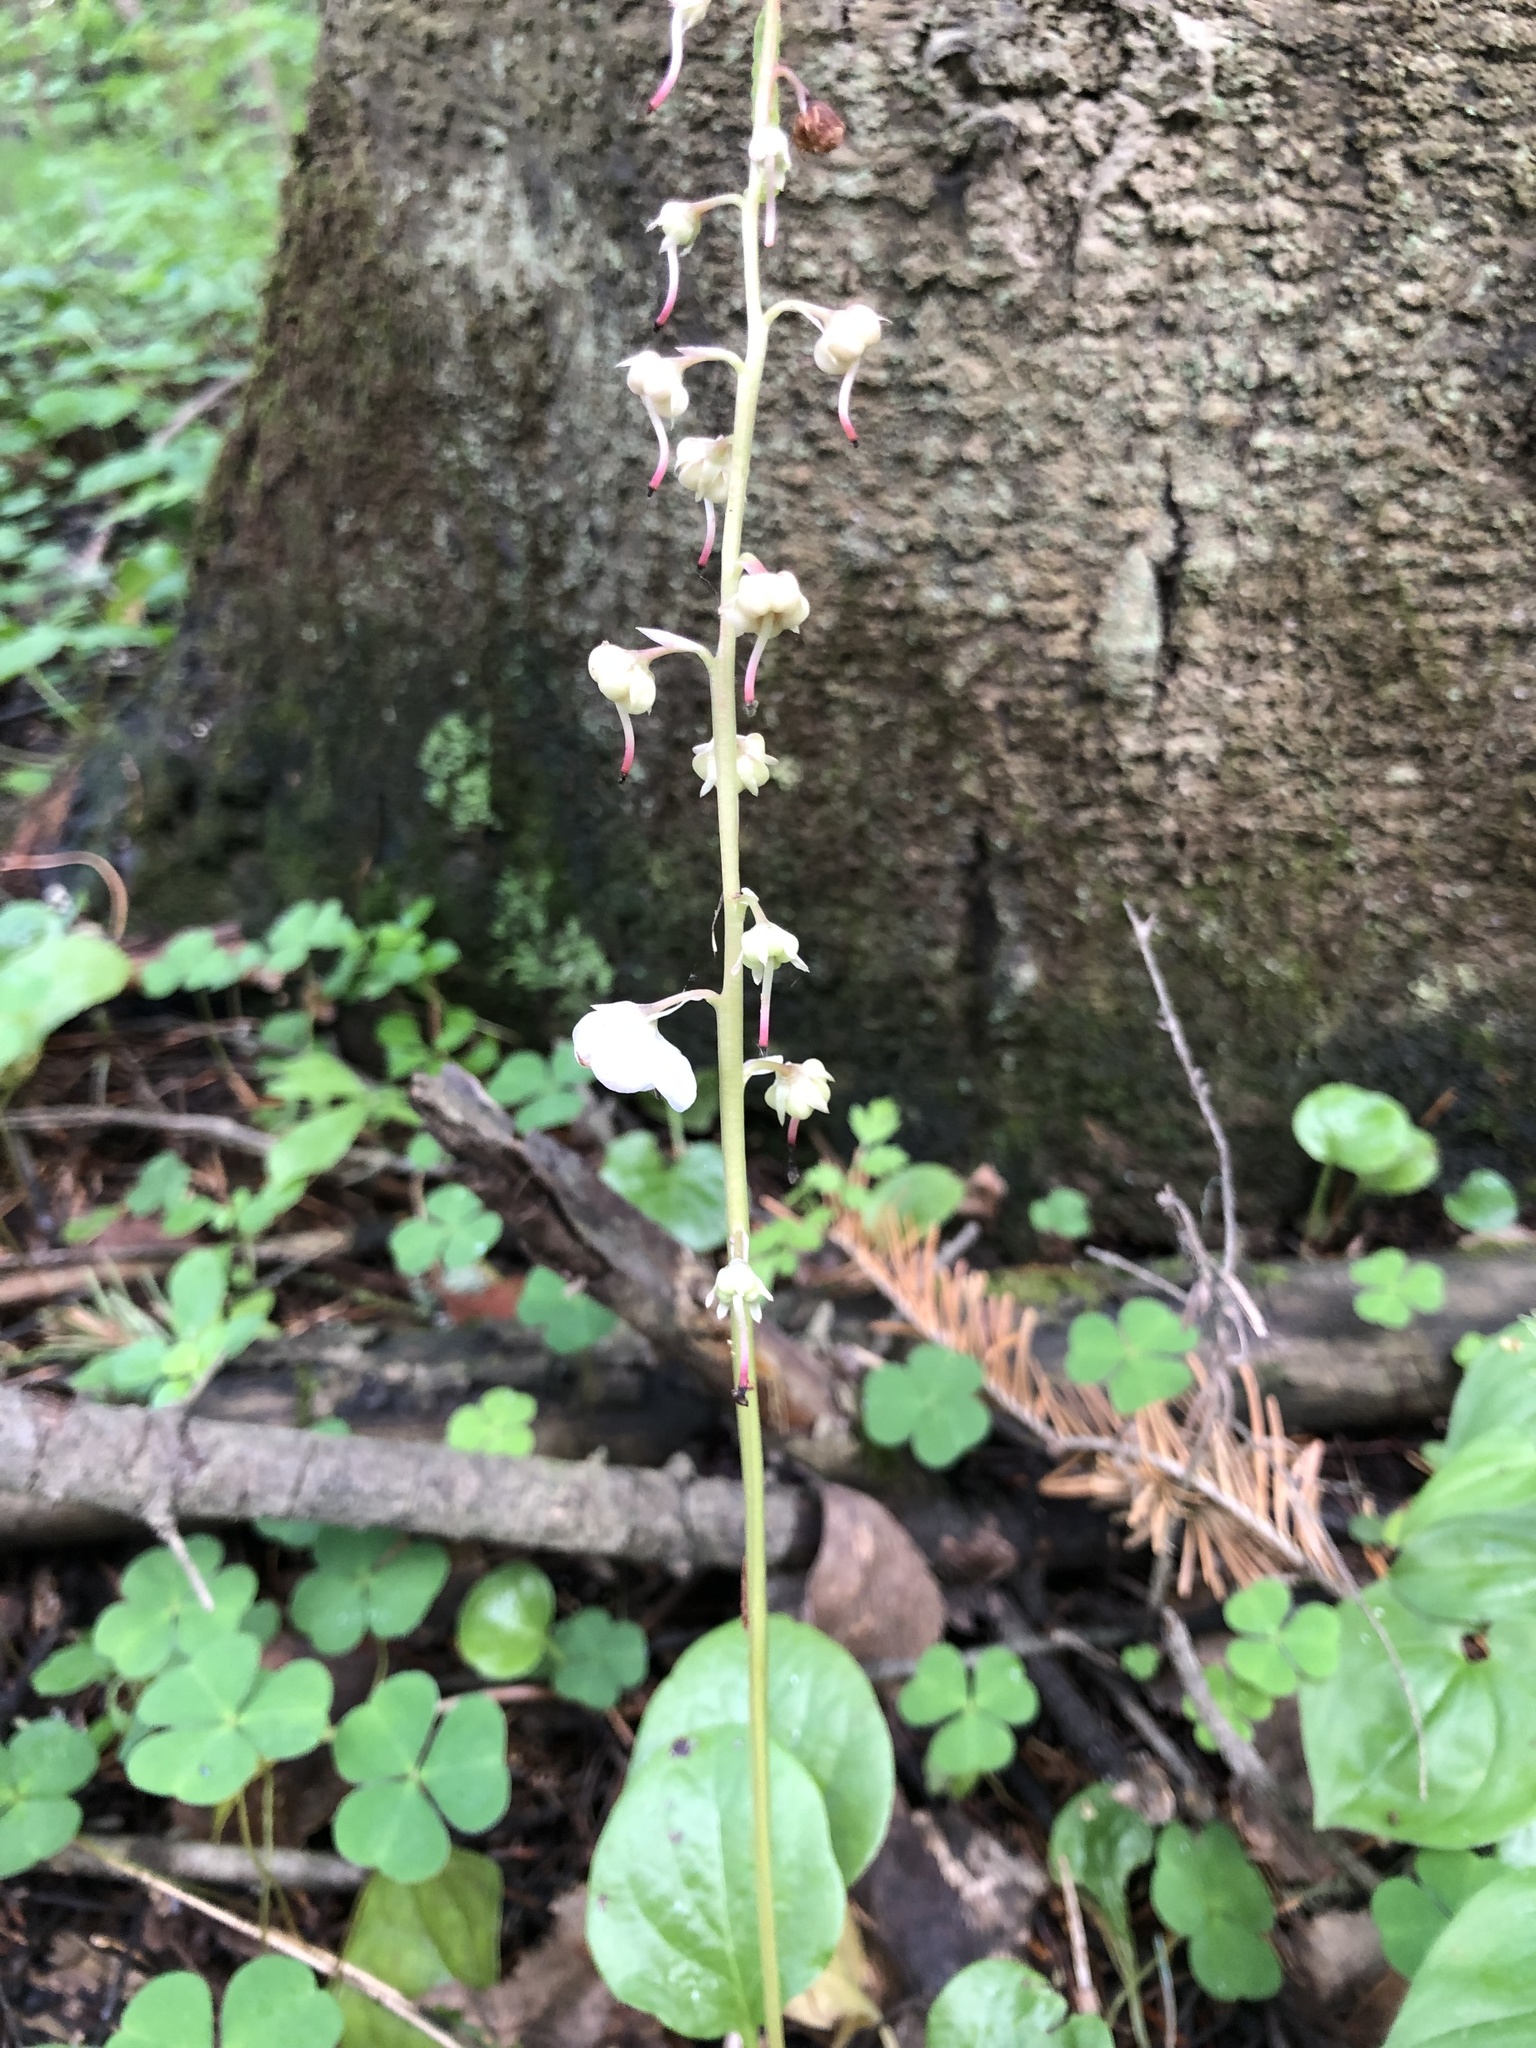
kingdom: Plantae
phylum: Tracheophyta
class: Magnoliopsida
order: Ericales
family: Ericaceae
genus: Pyrola
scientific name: Pyrola rotundifolia
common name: Round-leaved wintergreen
